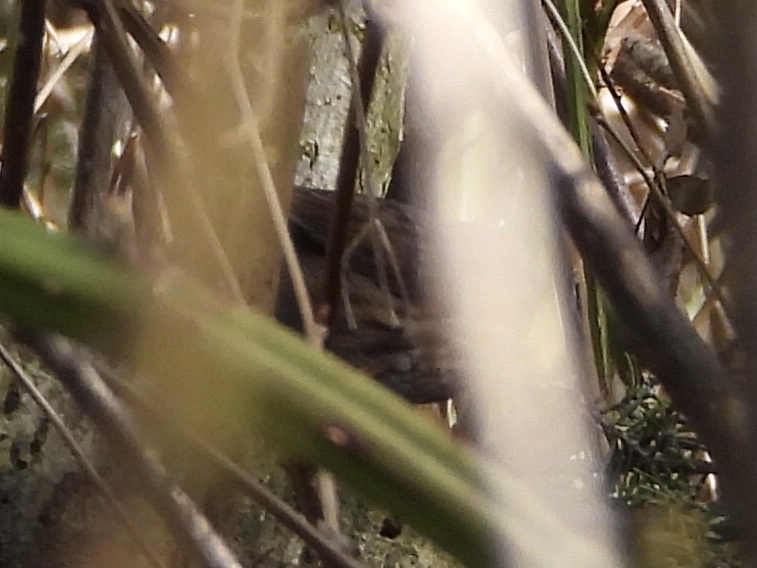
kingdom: Animalia
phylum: Chordata
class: Aves
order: Passeriformes
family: Passerellidae
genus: Melospiza
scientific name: Melospiza melodia
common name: Song sparrow
